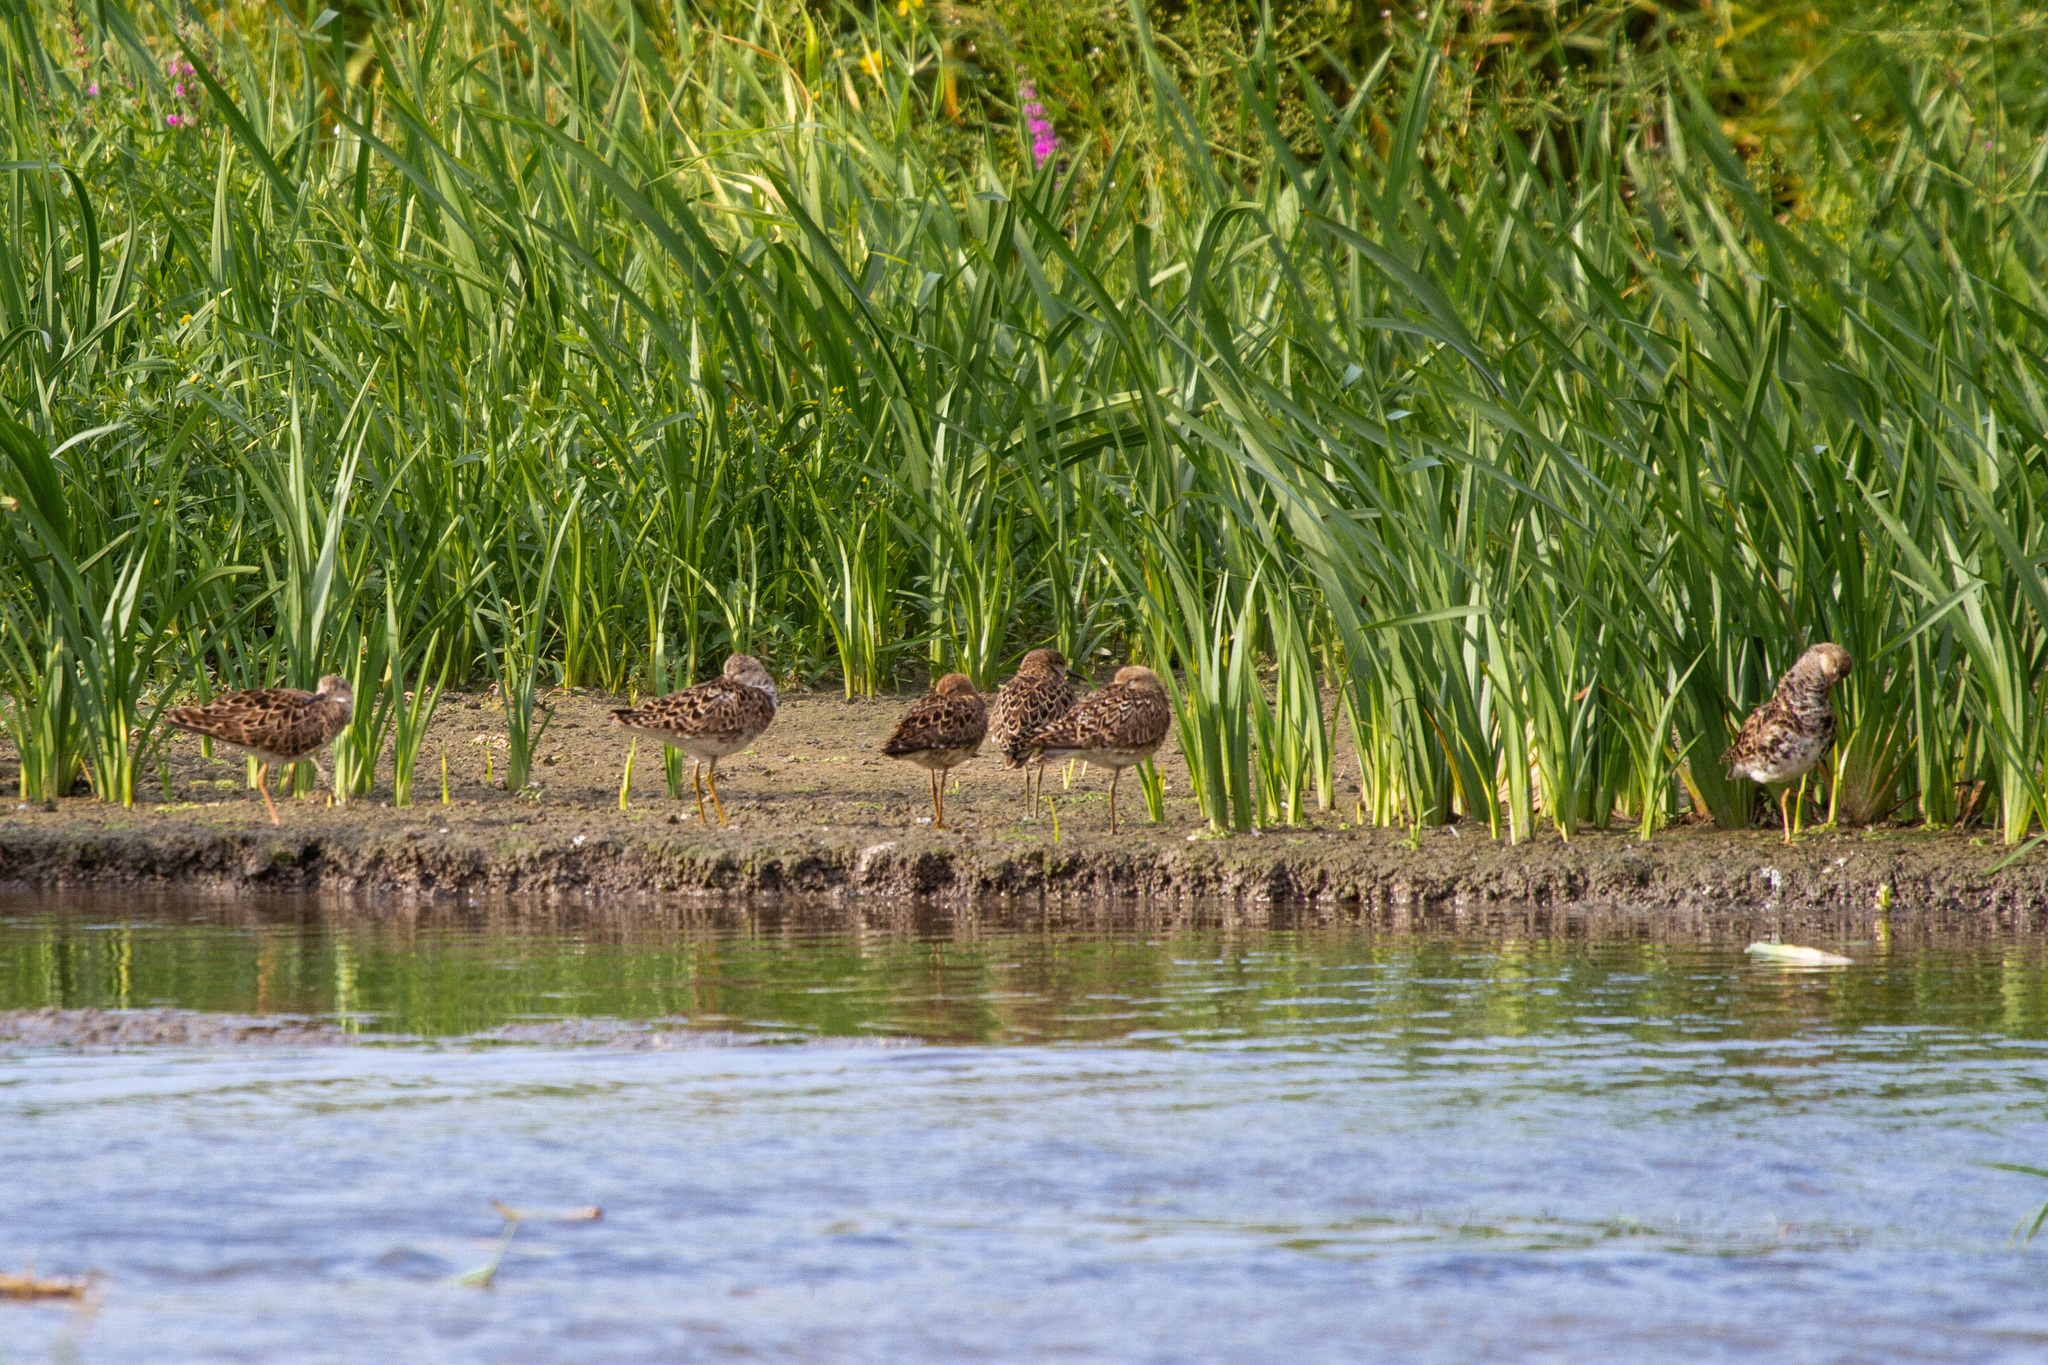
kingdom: Animalia
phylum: Chordata
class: Aves
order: Charadriiformes
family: Scolopacidae
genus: Calidris
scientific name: Calidris pugnax
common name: Ruff
